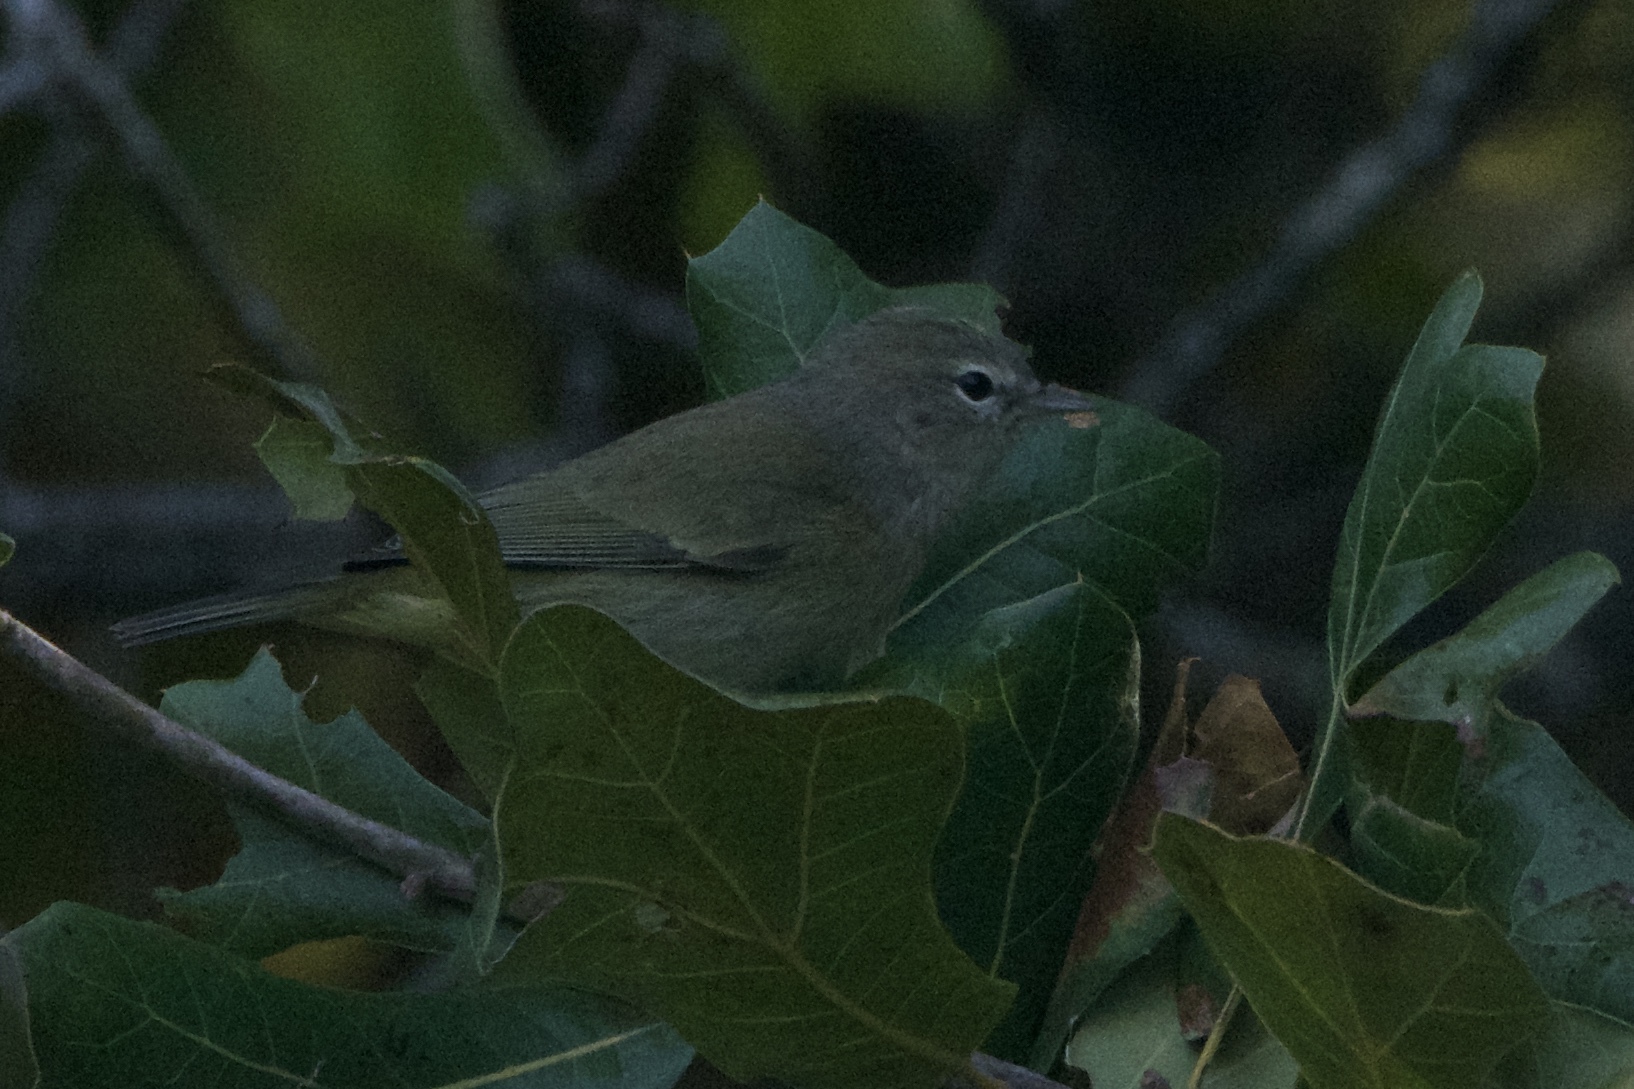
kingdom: Animalia
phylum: Chordata
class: Aves
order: Passeriformes
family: Parulidae
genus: Leiothlypis
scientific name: Leiothlypis celata
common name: Orange-crowned warbler
